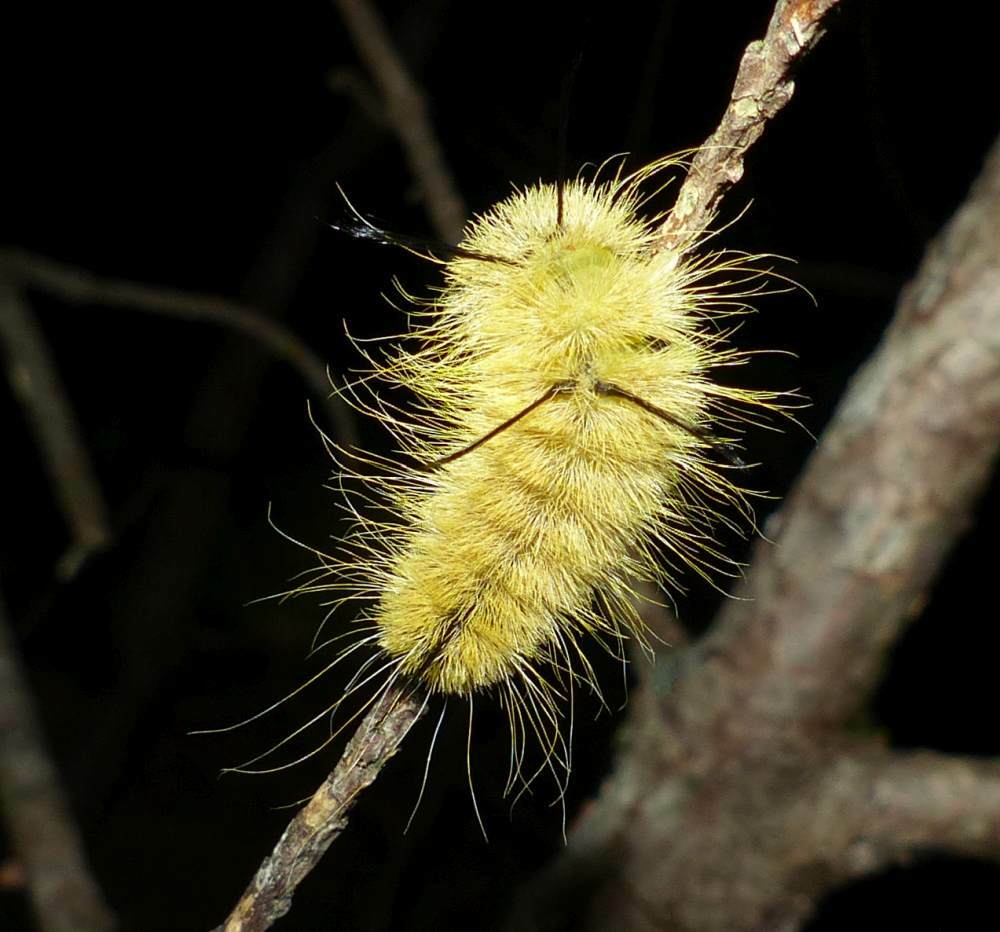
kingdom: Animalia
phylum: Arthropoda
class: Insecta
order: Lepidoptera
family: Noctuidae
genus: Acronicta
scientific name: Acronicta americana
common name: American dagger
